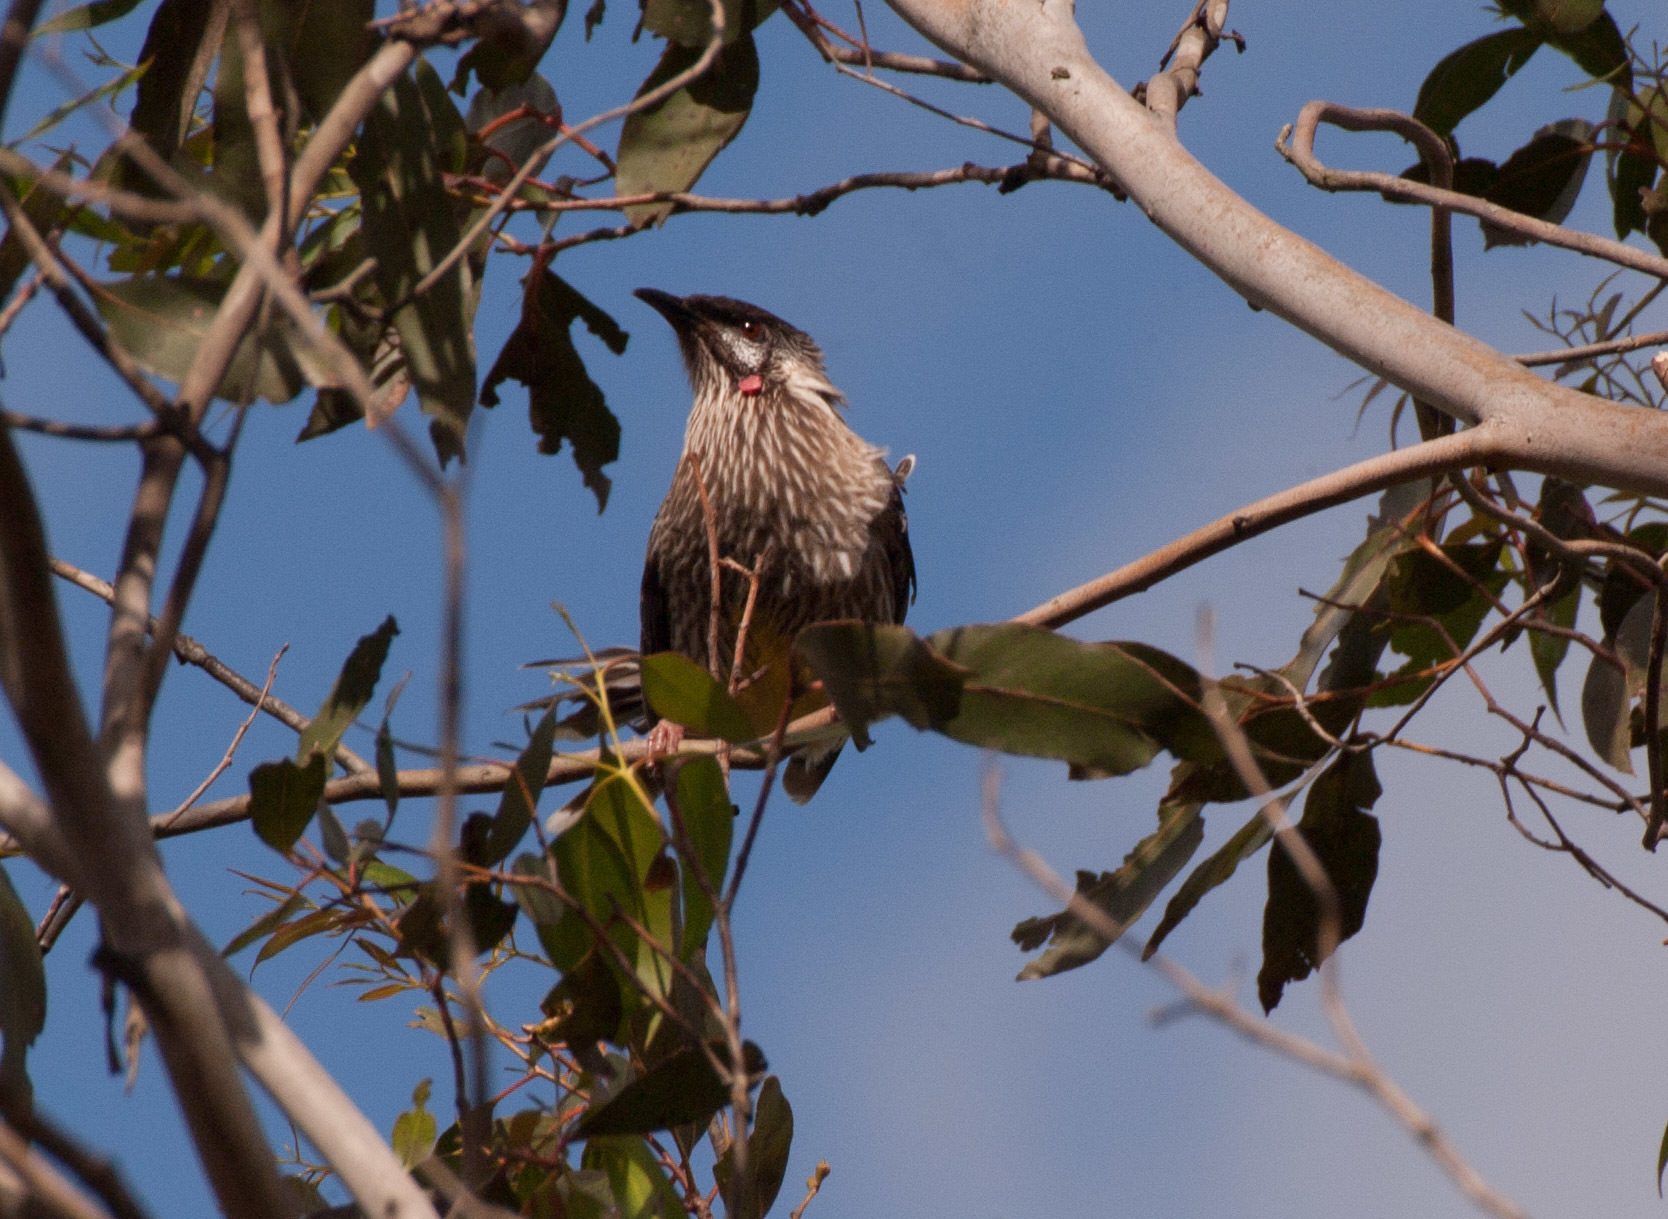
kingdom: Animalia
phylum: Chordata
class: Aves
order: Passeriformes
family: Meliphagidae
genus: Anthochaera
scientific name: Anthochaera carunculata
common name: Red wattlebird
